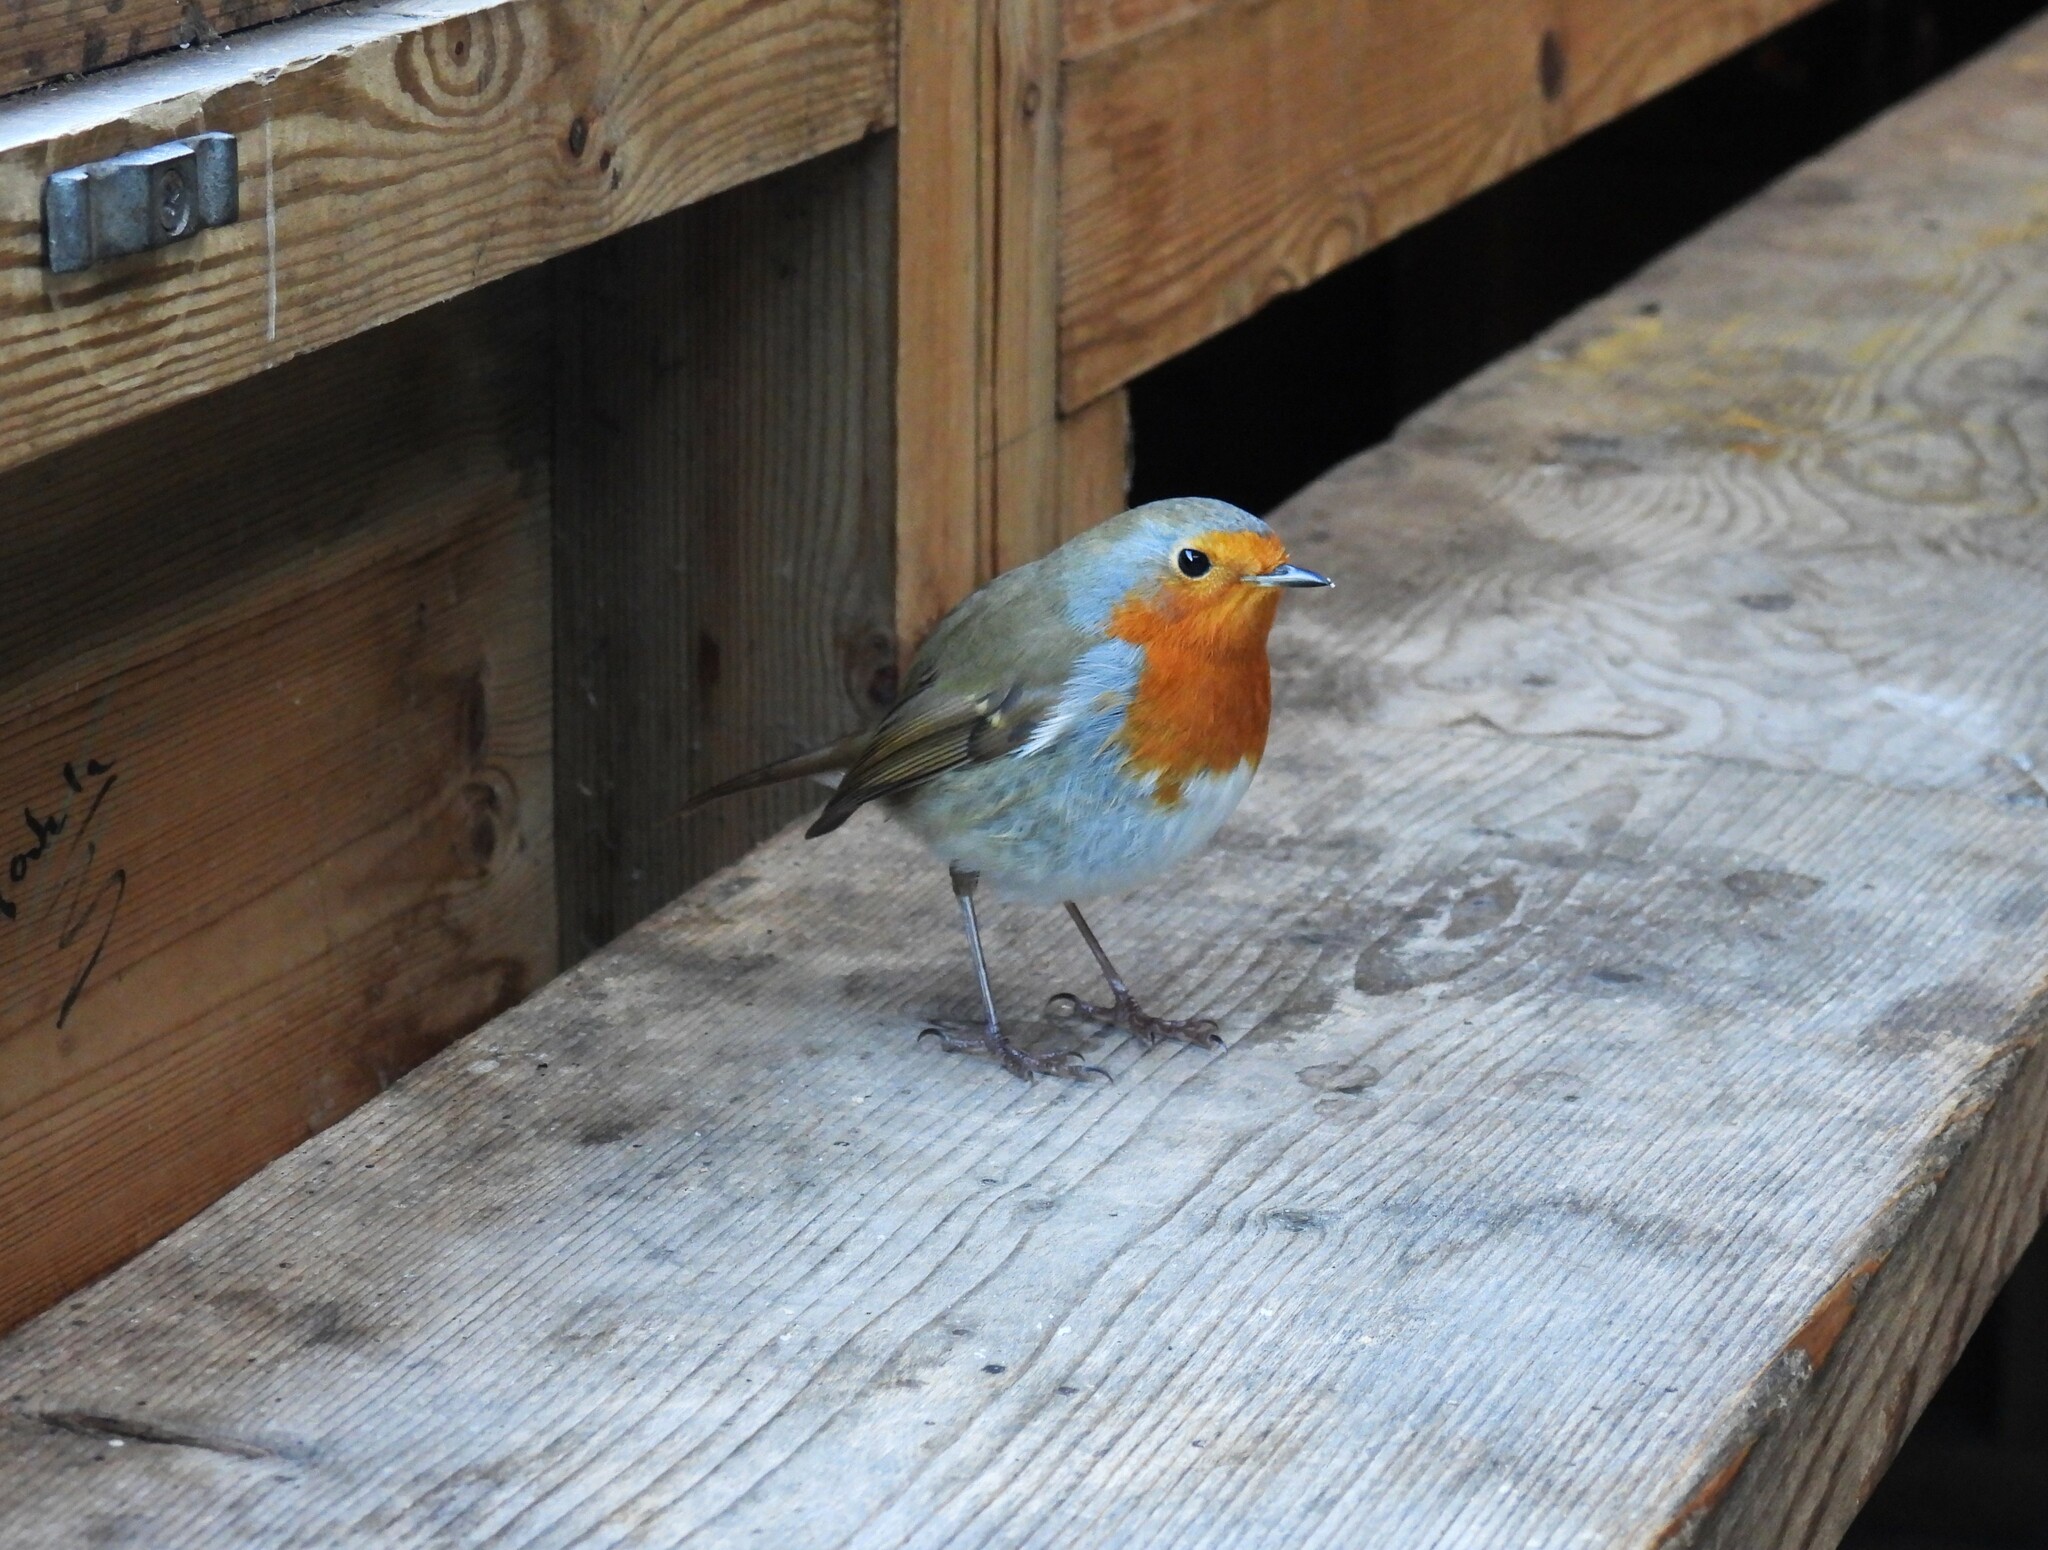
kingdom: Animalia
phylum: Chordata
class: Aves
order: Passeriformes
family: Muscicapidae
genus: Erithacus
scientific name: Erithacus rubecula
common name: European robin
